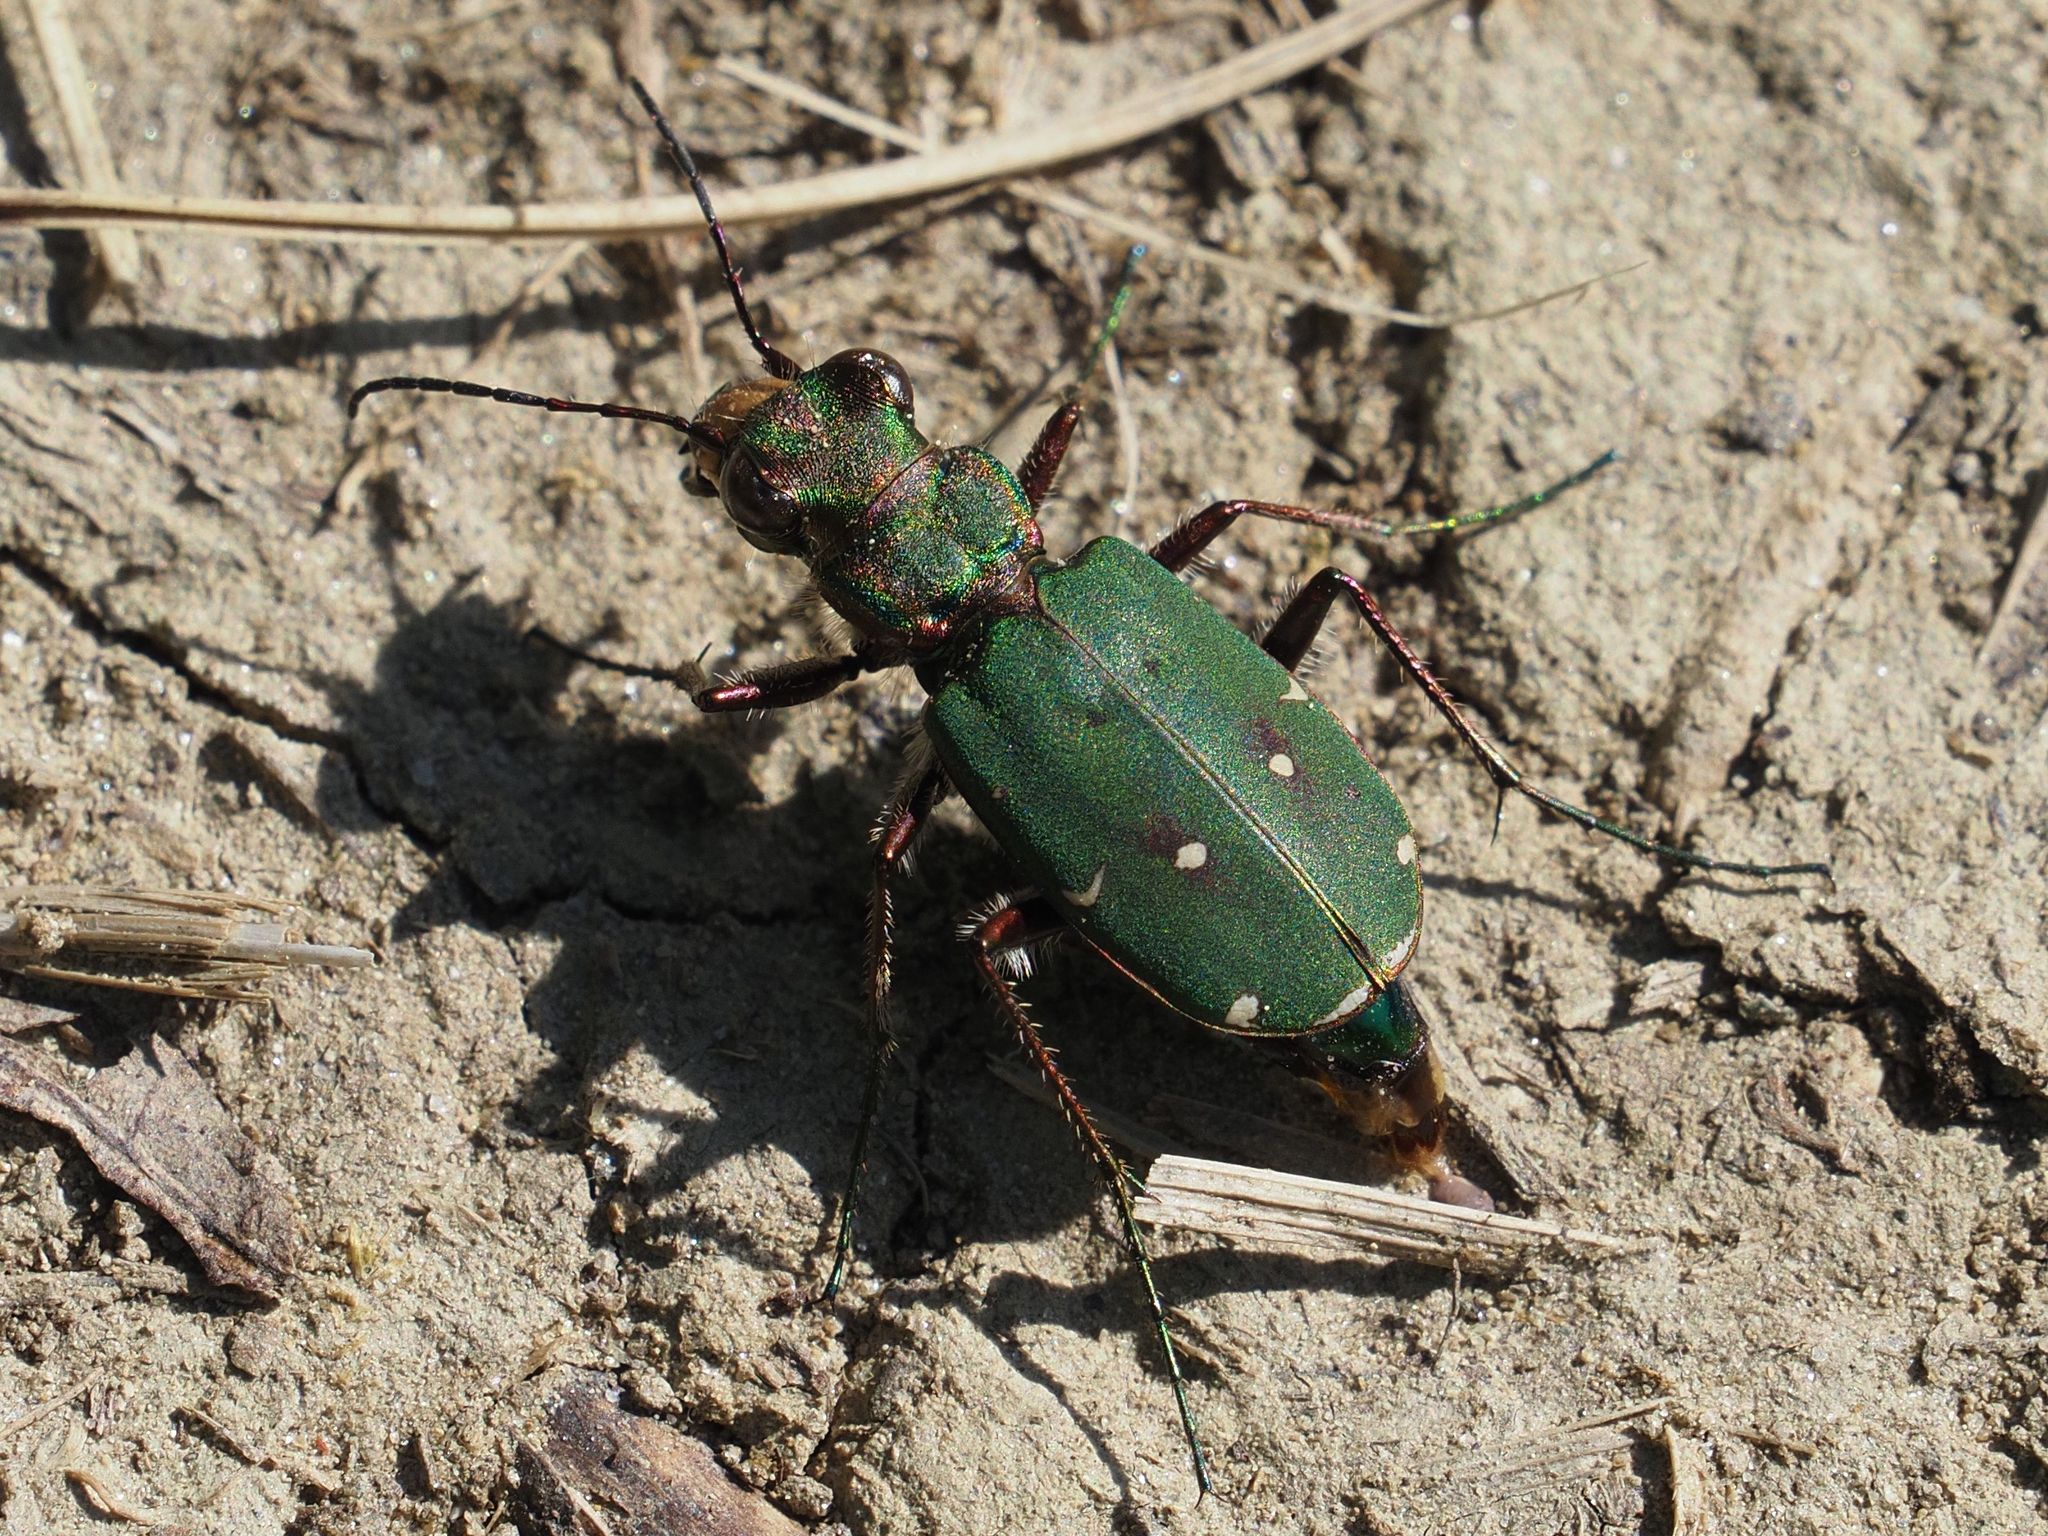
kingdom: Animalia
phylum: Arthropoda
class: Insecta
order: Coleoptera
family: Carabidae
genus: Cicindela
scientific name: Cicindela campestris
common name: Common tiger beetle
